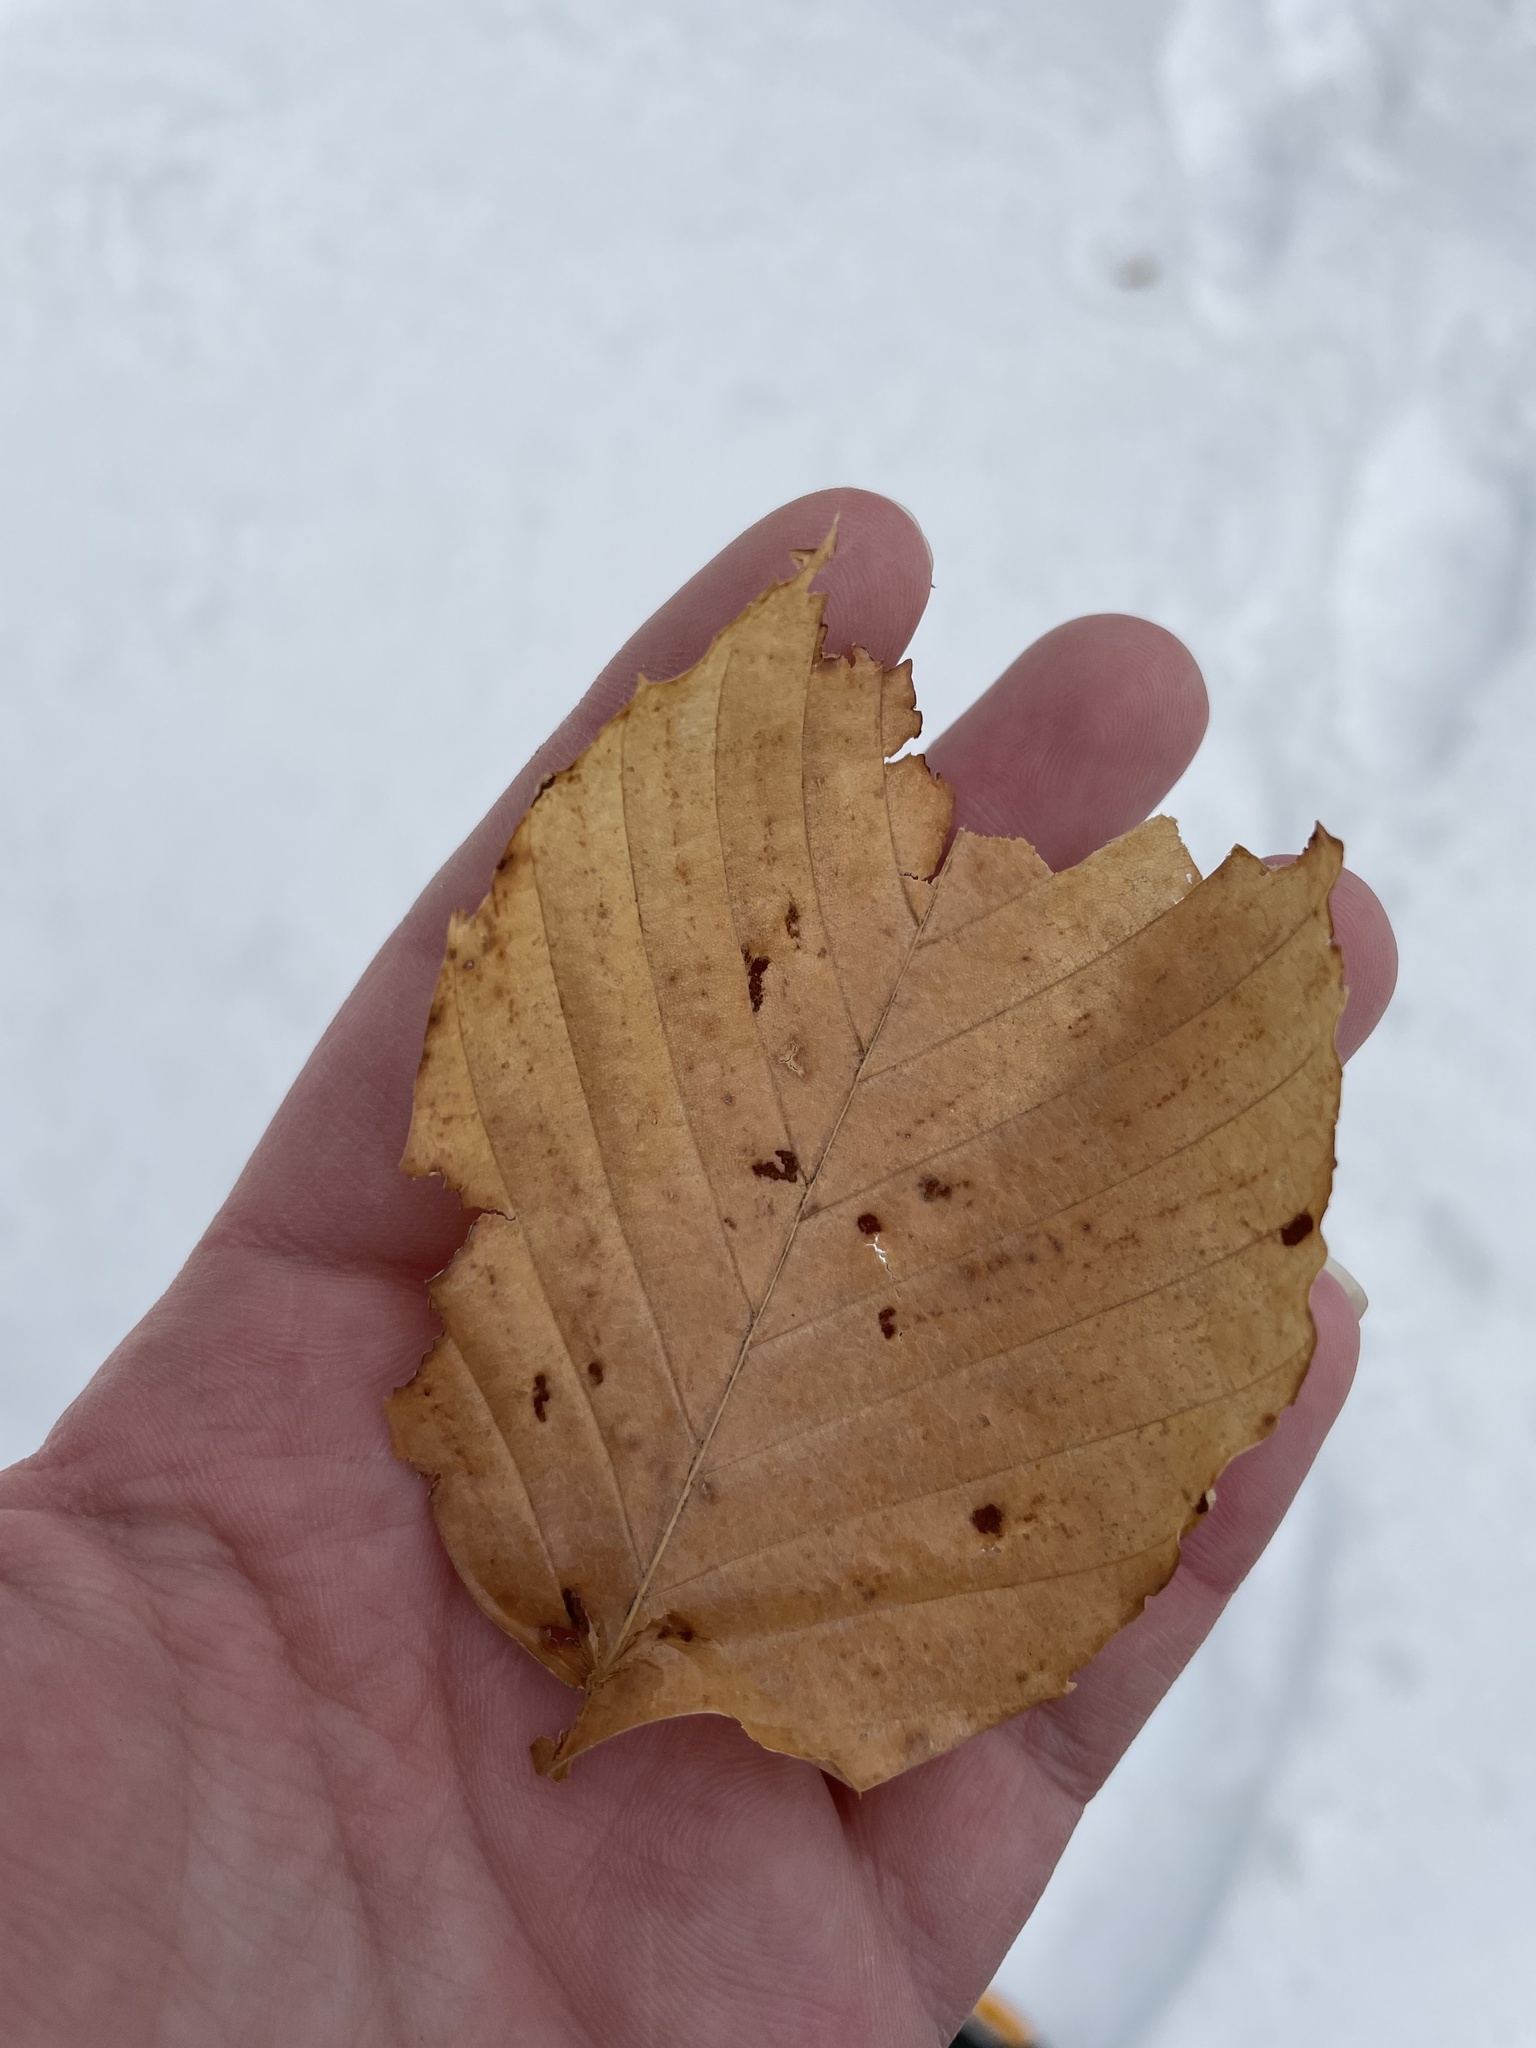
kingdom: Plantae
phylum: Tracheophyta
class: Magnoliopsida
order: Fagales
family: Fagaceae
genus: Fagus
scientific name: Fagus grandifolia
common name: American beech
